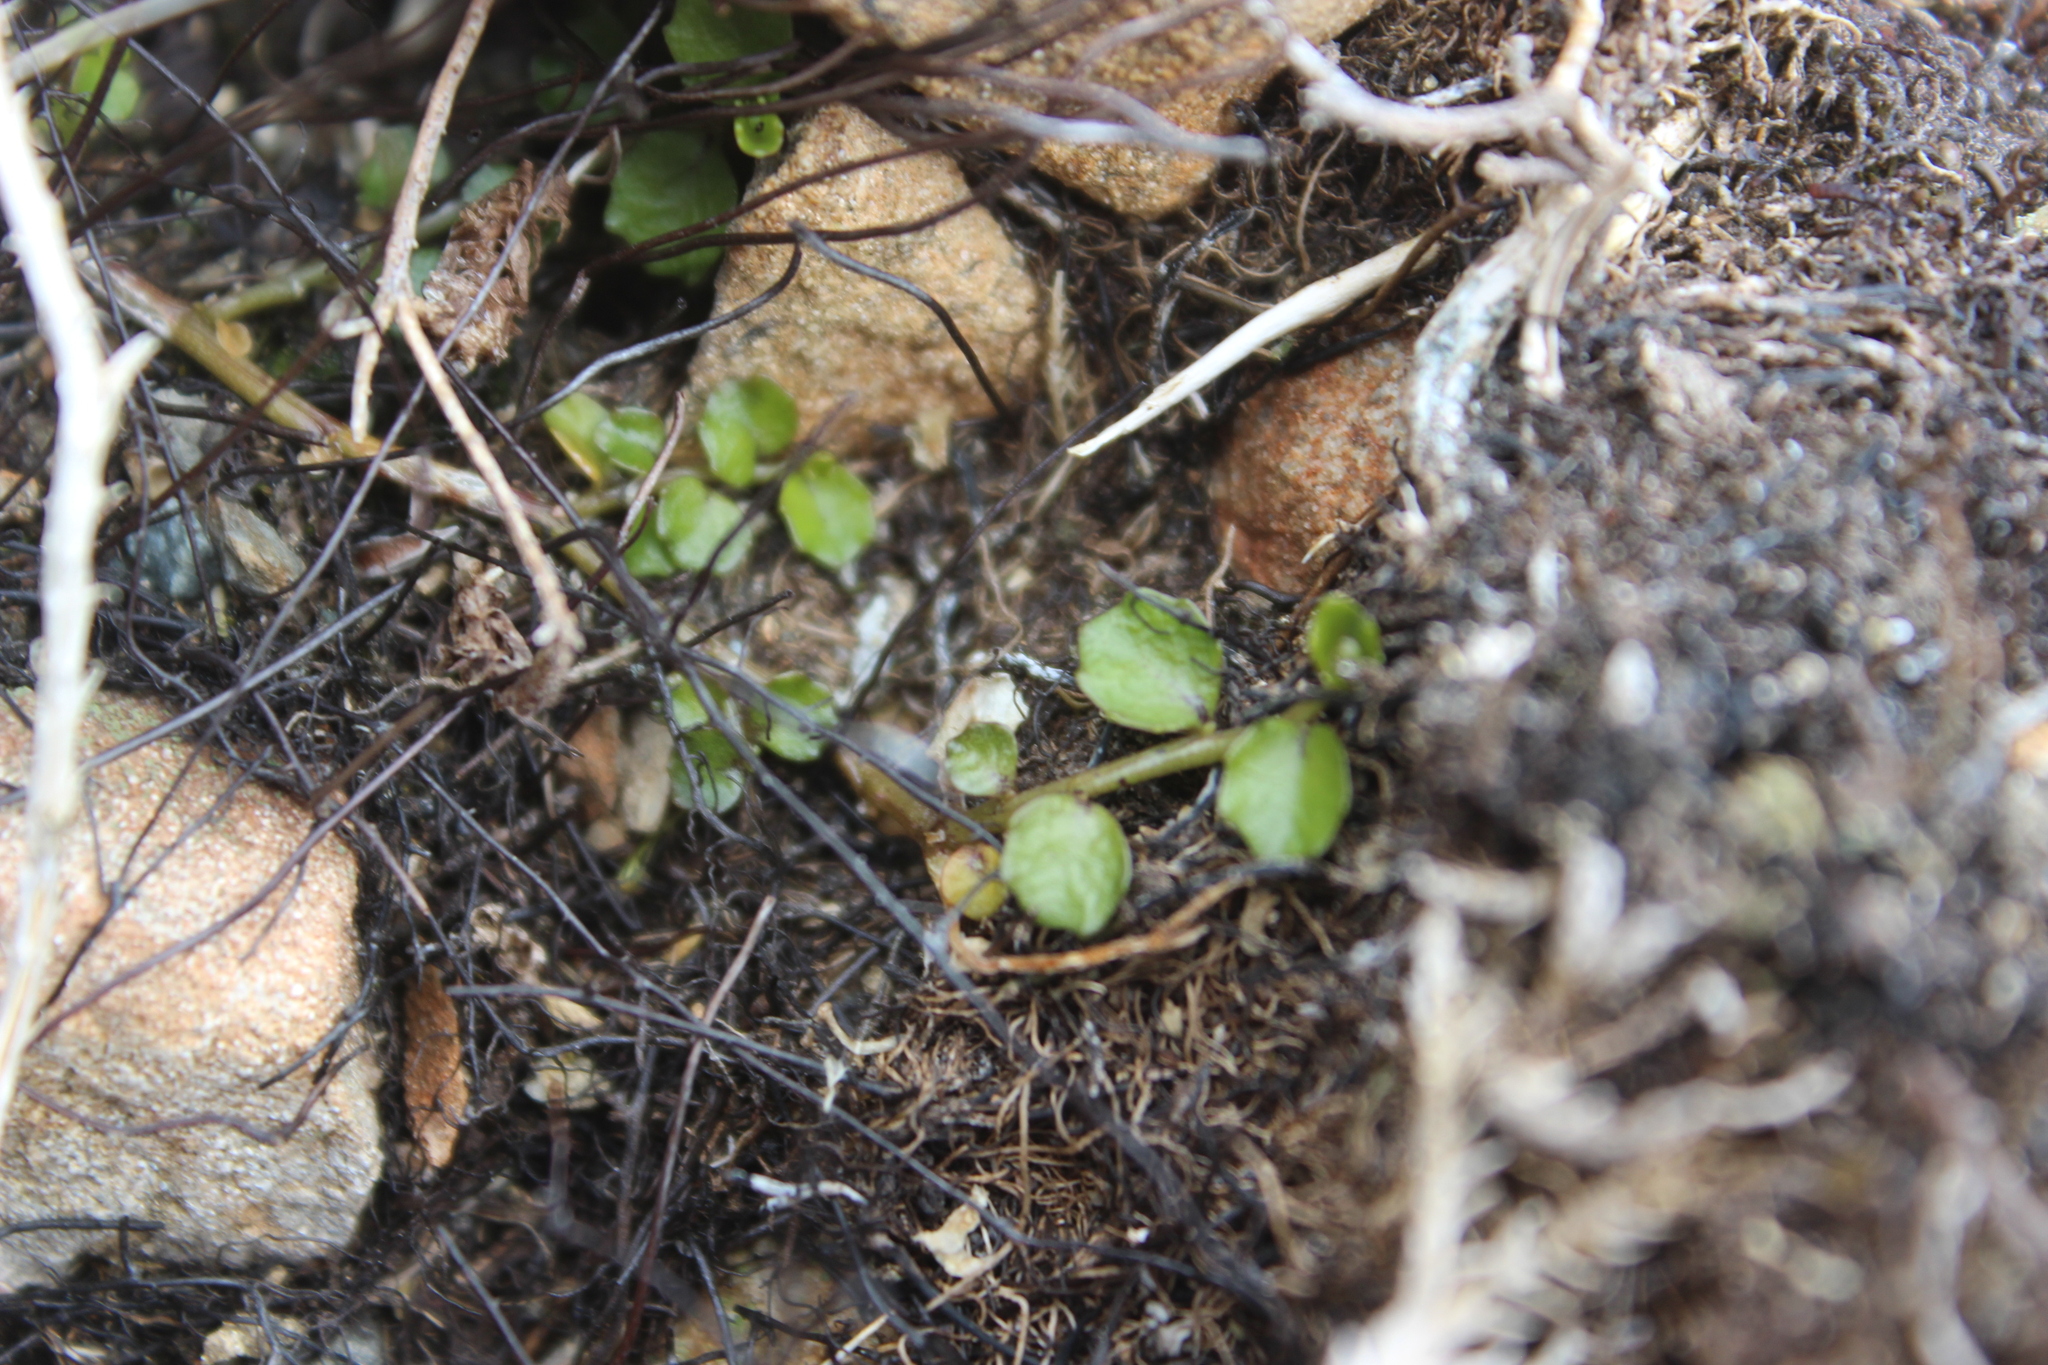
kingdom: Plantae
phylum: Tracheophyta
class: Magnoliopsida
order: Asterales
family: Campanulaceae
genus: Lobelia
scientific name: Lobelia angulata
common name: Lawn lobelia
